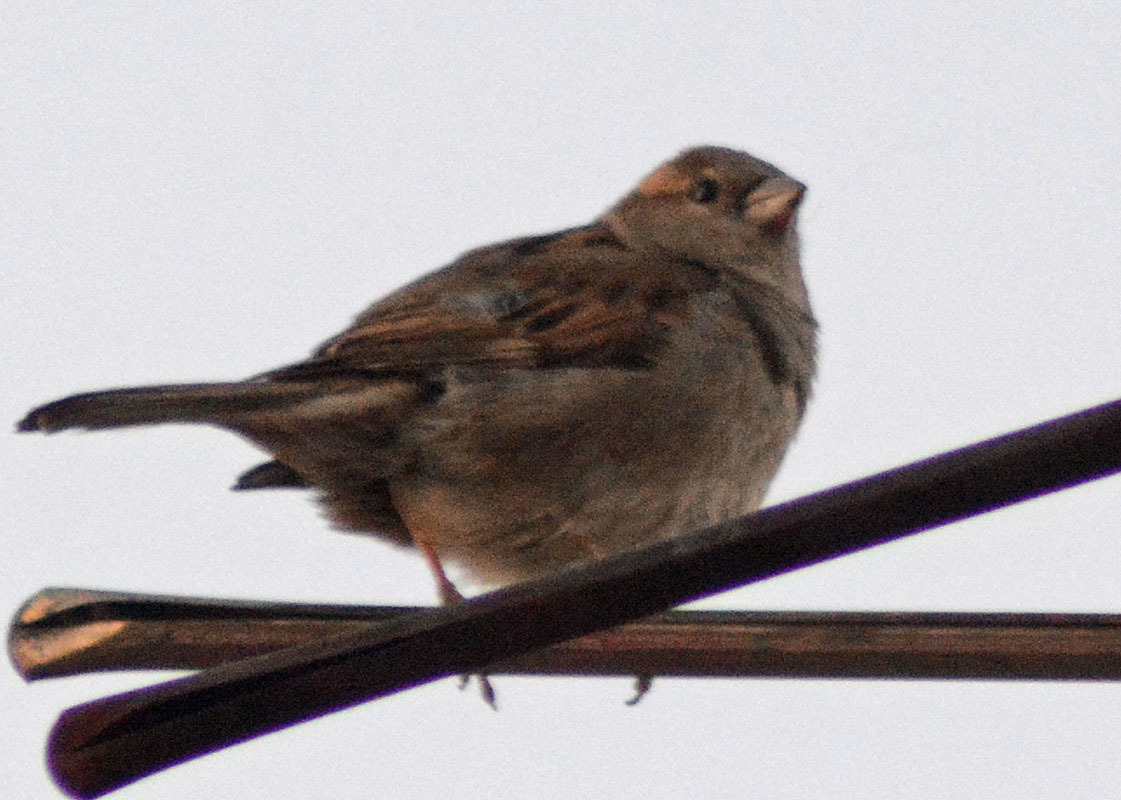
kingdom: Animalia
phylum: Chordata
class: Aves
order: Passeriformes
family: Passeridae
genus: Passer
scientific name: Passer domesticus
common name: House sparrow
